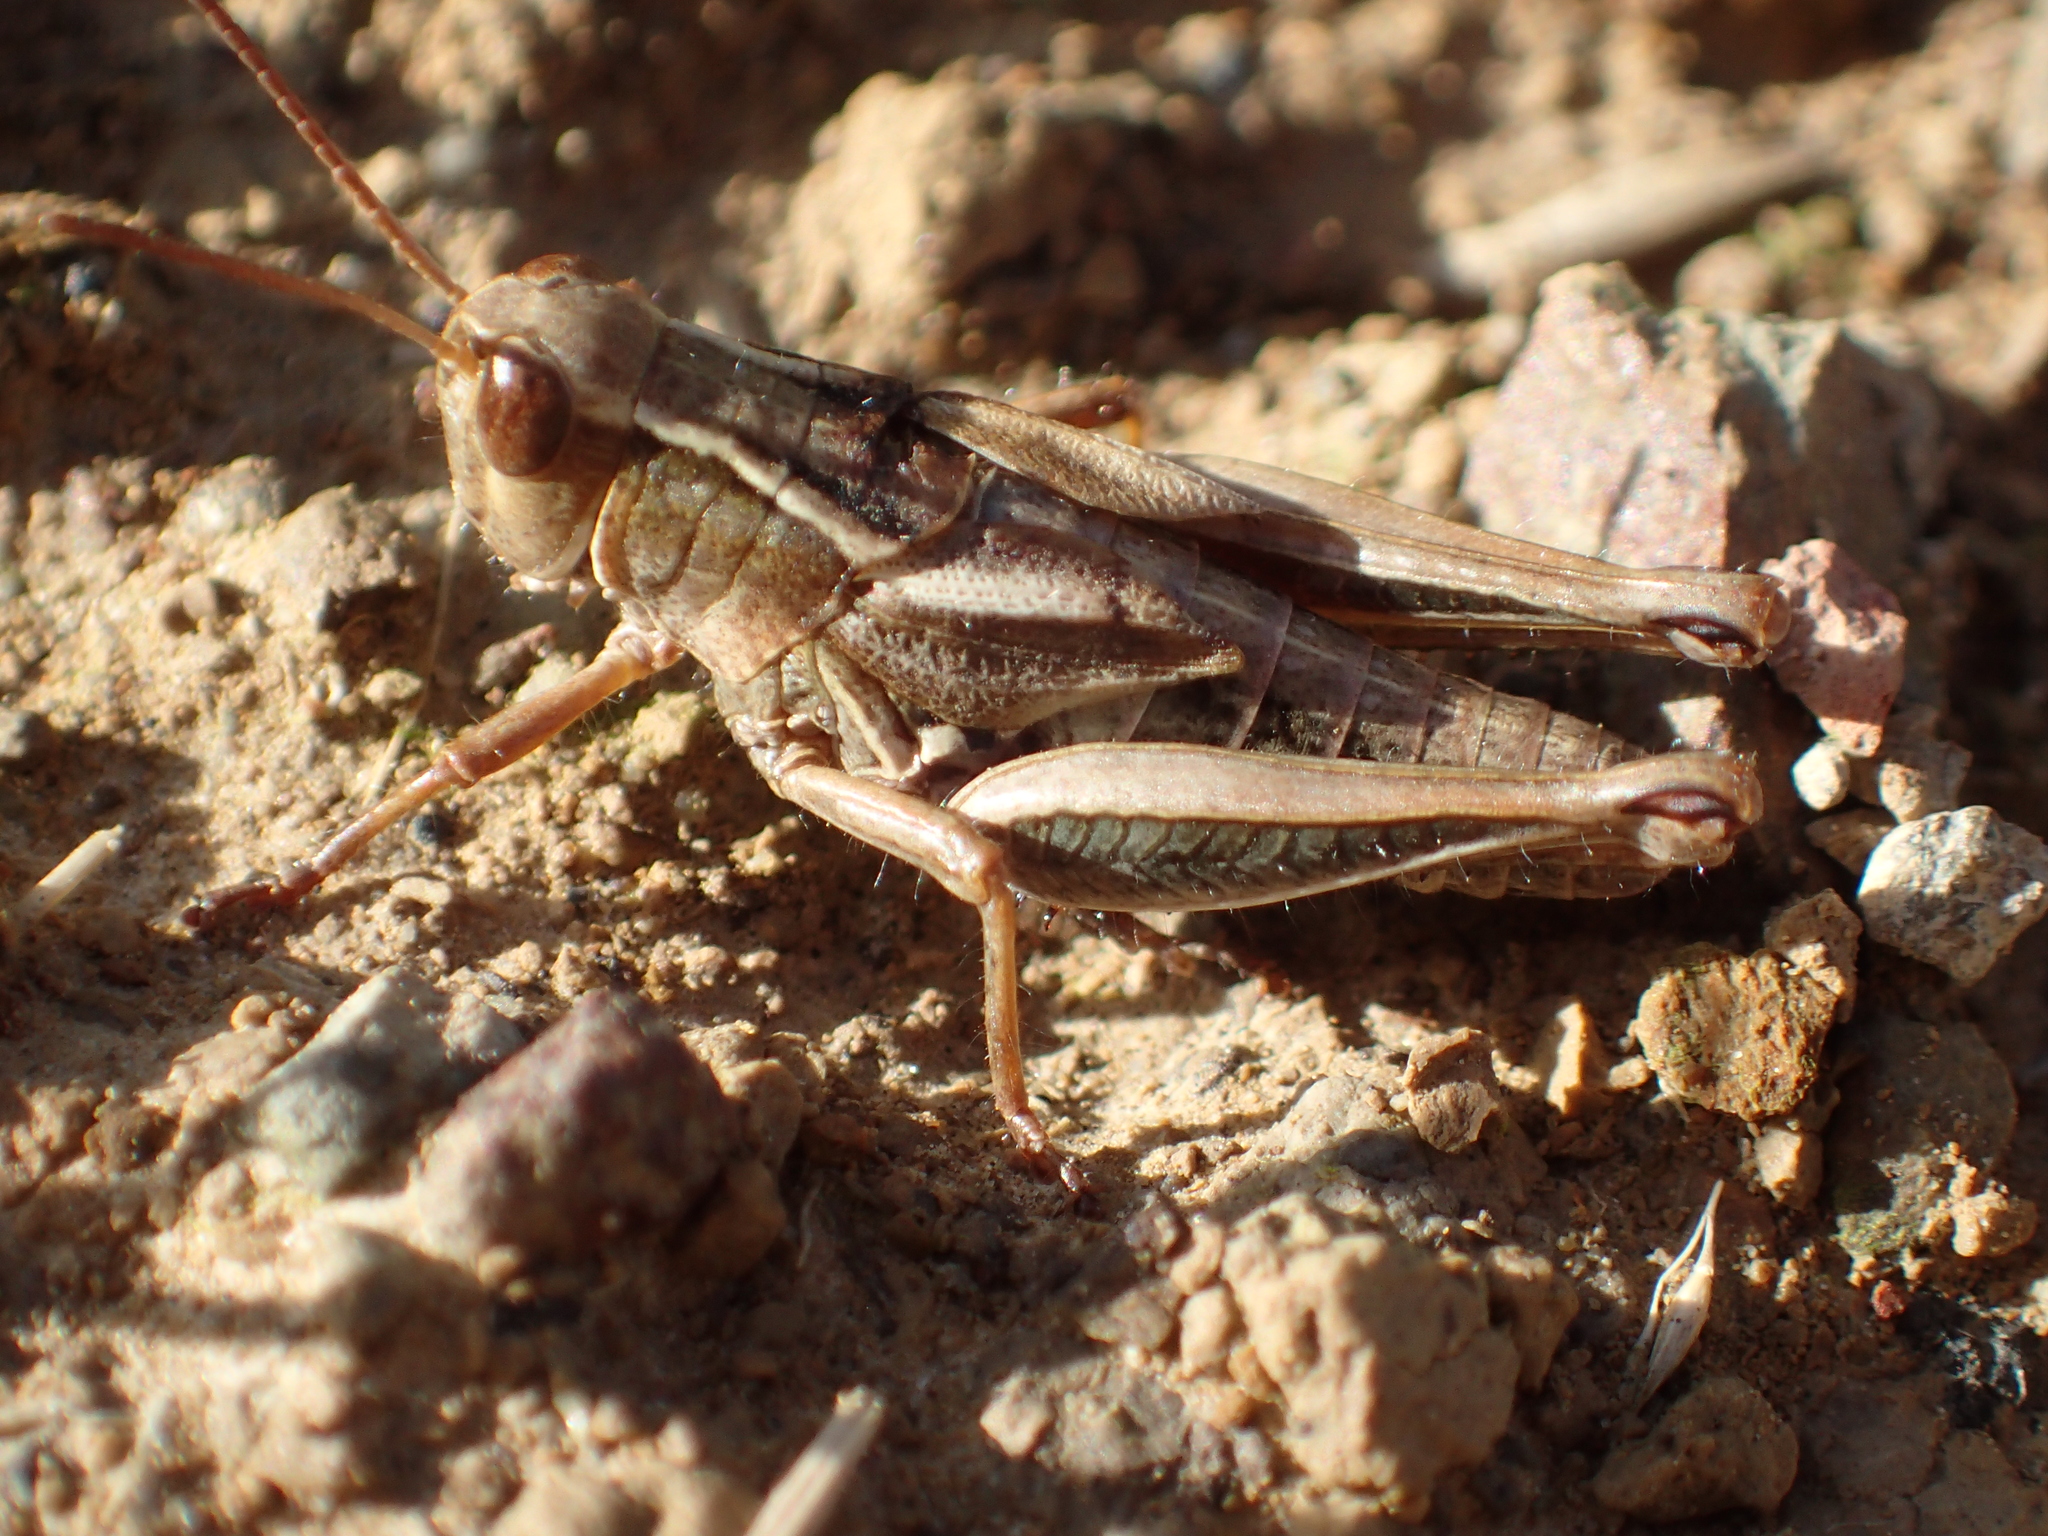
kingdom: Animalia
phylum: Arthropoda
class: Insecta
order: Orthoptera
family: Acrididae
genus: Phaulacridium
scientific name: Phaulacridium marginale
